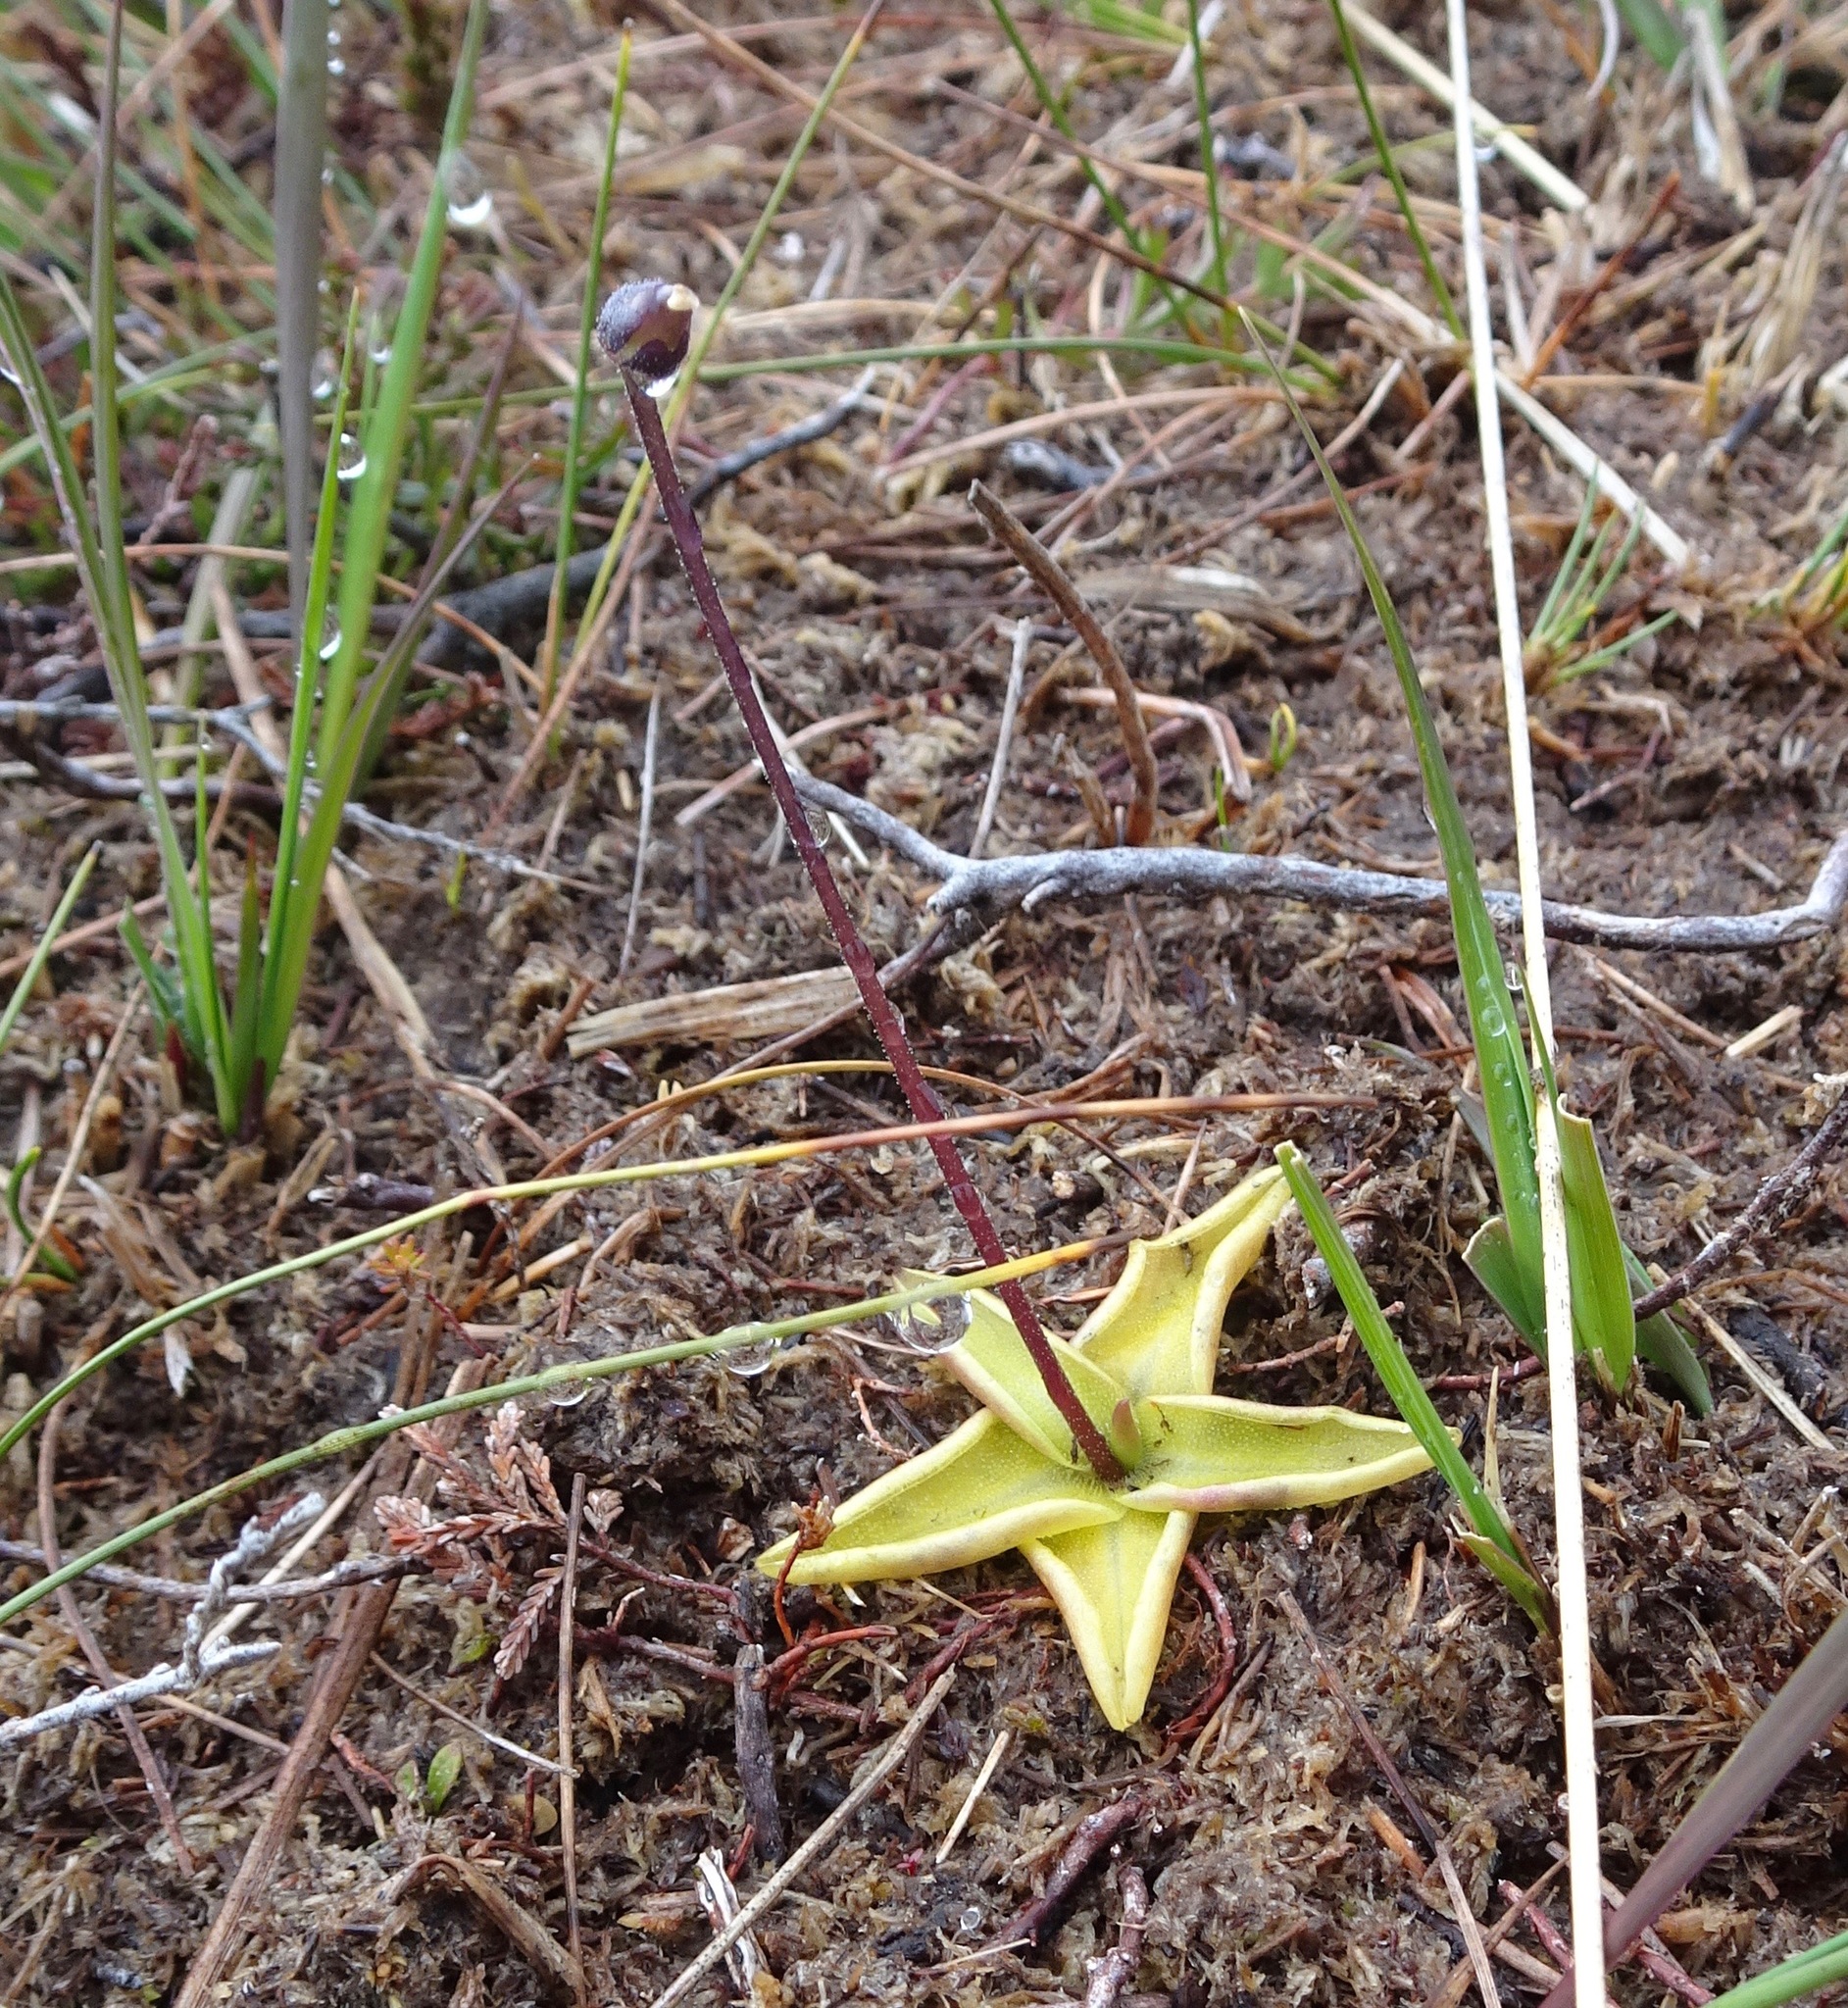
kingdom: Plantae
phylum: Tracheophyta
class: Magnoliopsida
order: Lamiales
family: Lentibulariaceae
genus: Pinguicula
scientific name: Pinguicula vulgaris
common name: Common butterwort
